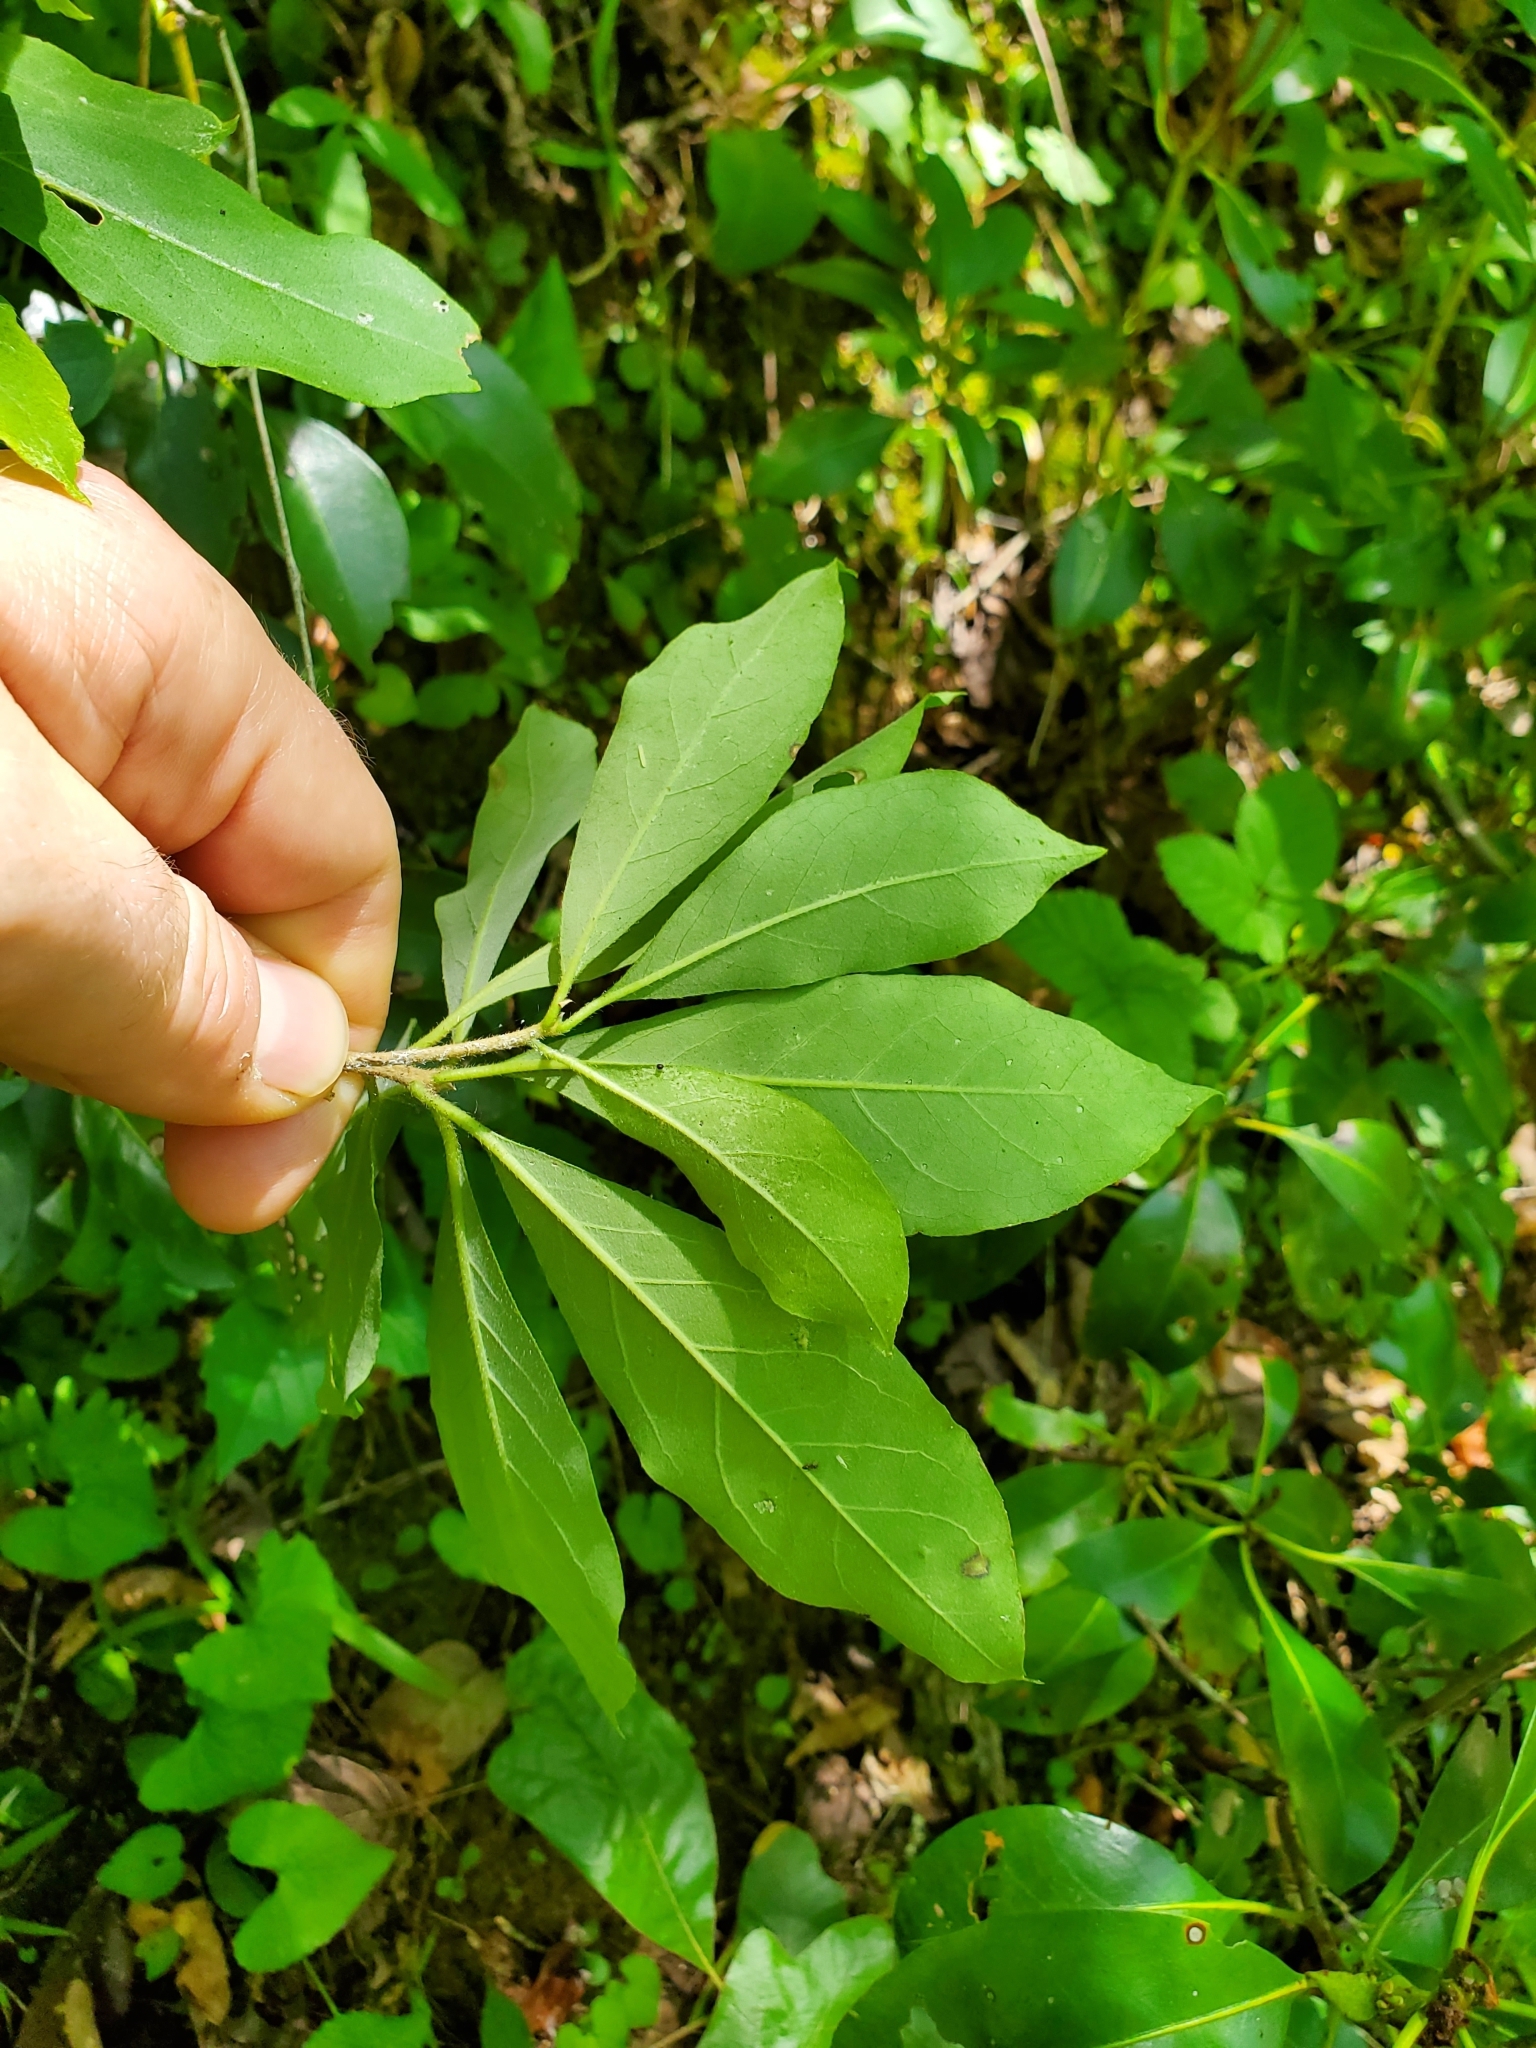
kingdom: Plantae
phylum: Tracheophyta
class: Magnoliopsida
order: Ericales
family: Ericaceae
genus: Kalmia
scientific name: Kalmia latifolia
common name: Mountain-laurel
